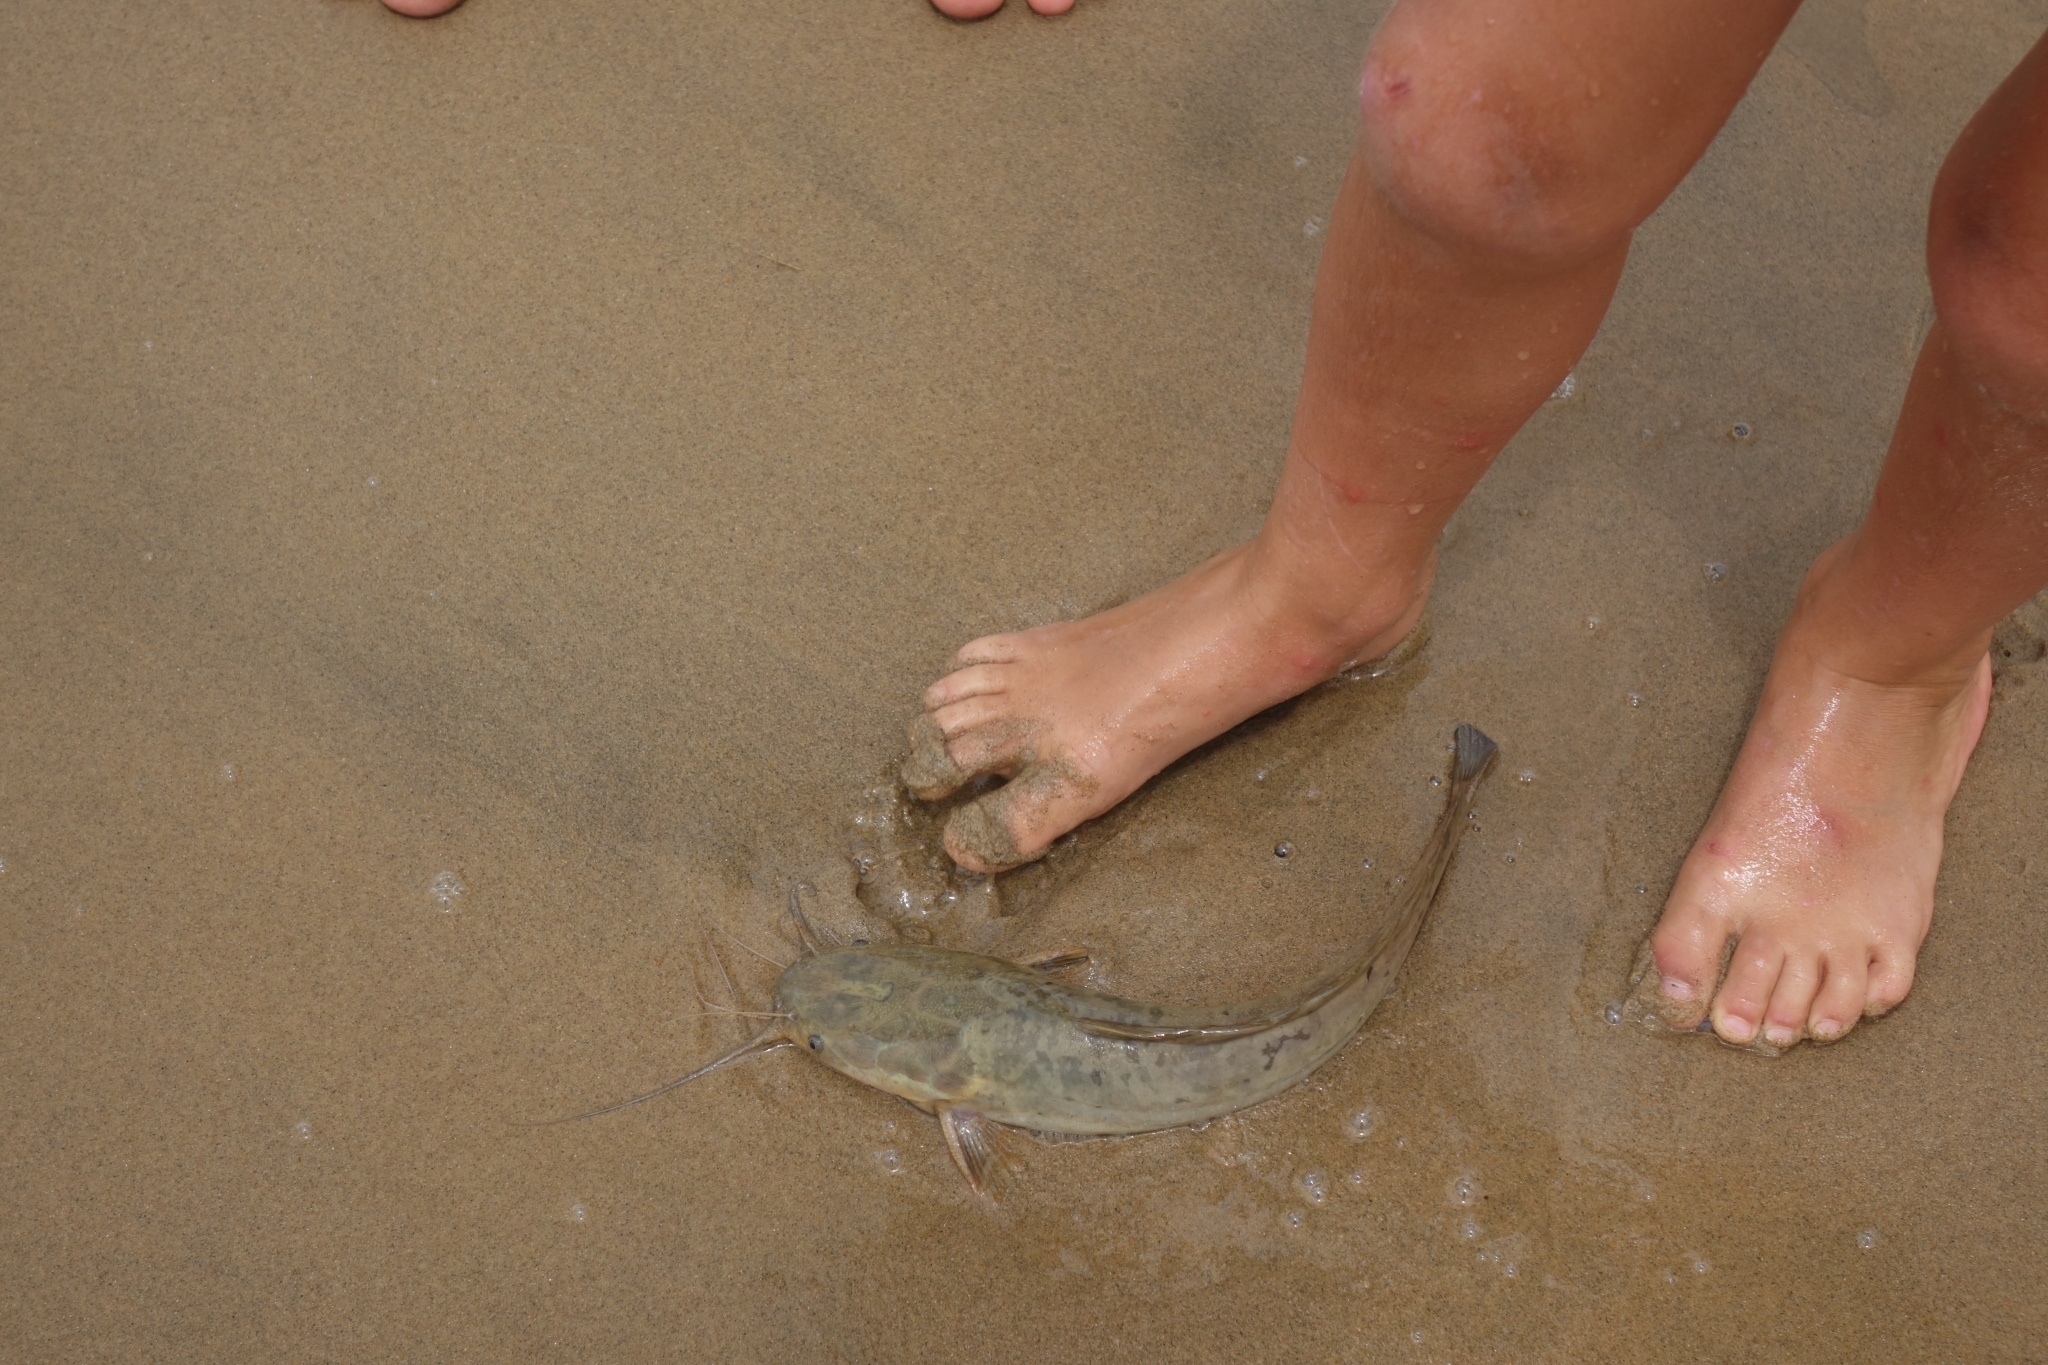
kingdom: Animalia
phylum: Chordata
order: Siluriformes
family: Clariidae
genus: Clarias
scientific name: Clarias gariepinus
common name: African catfish
